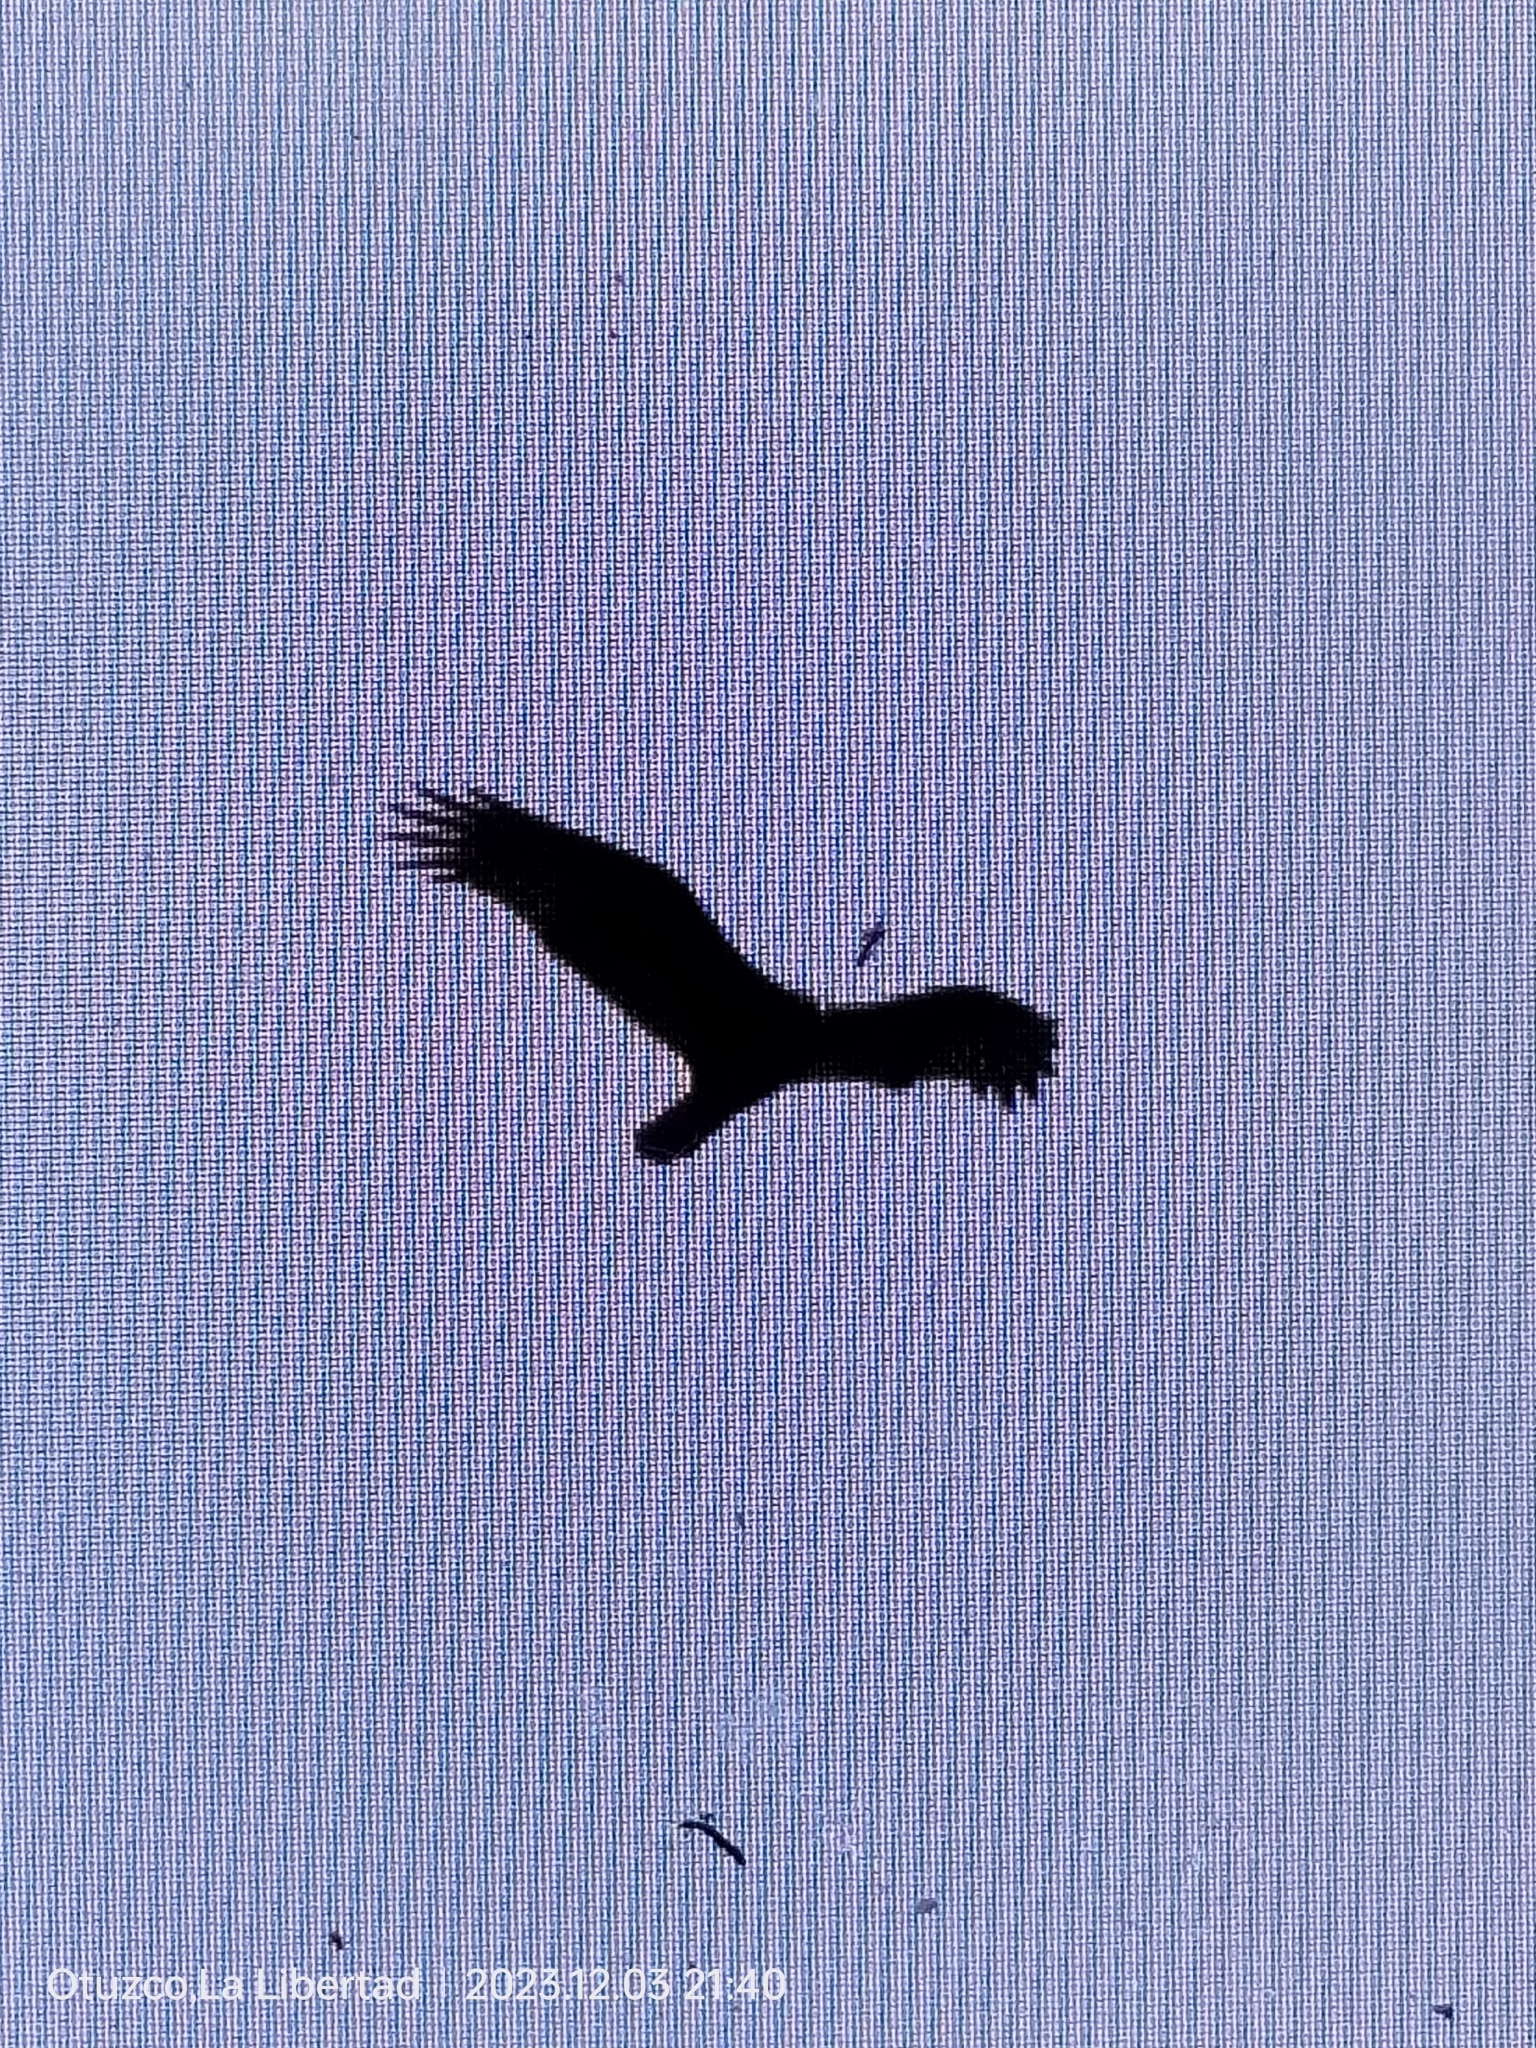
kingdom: Animalia
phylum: Chordata
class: Aves
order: Accipitriformes
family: Cathartidae
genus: Cathartes
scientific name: Cathartes aura
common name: Turkey vulture
